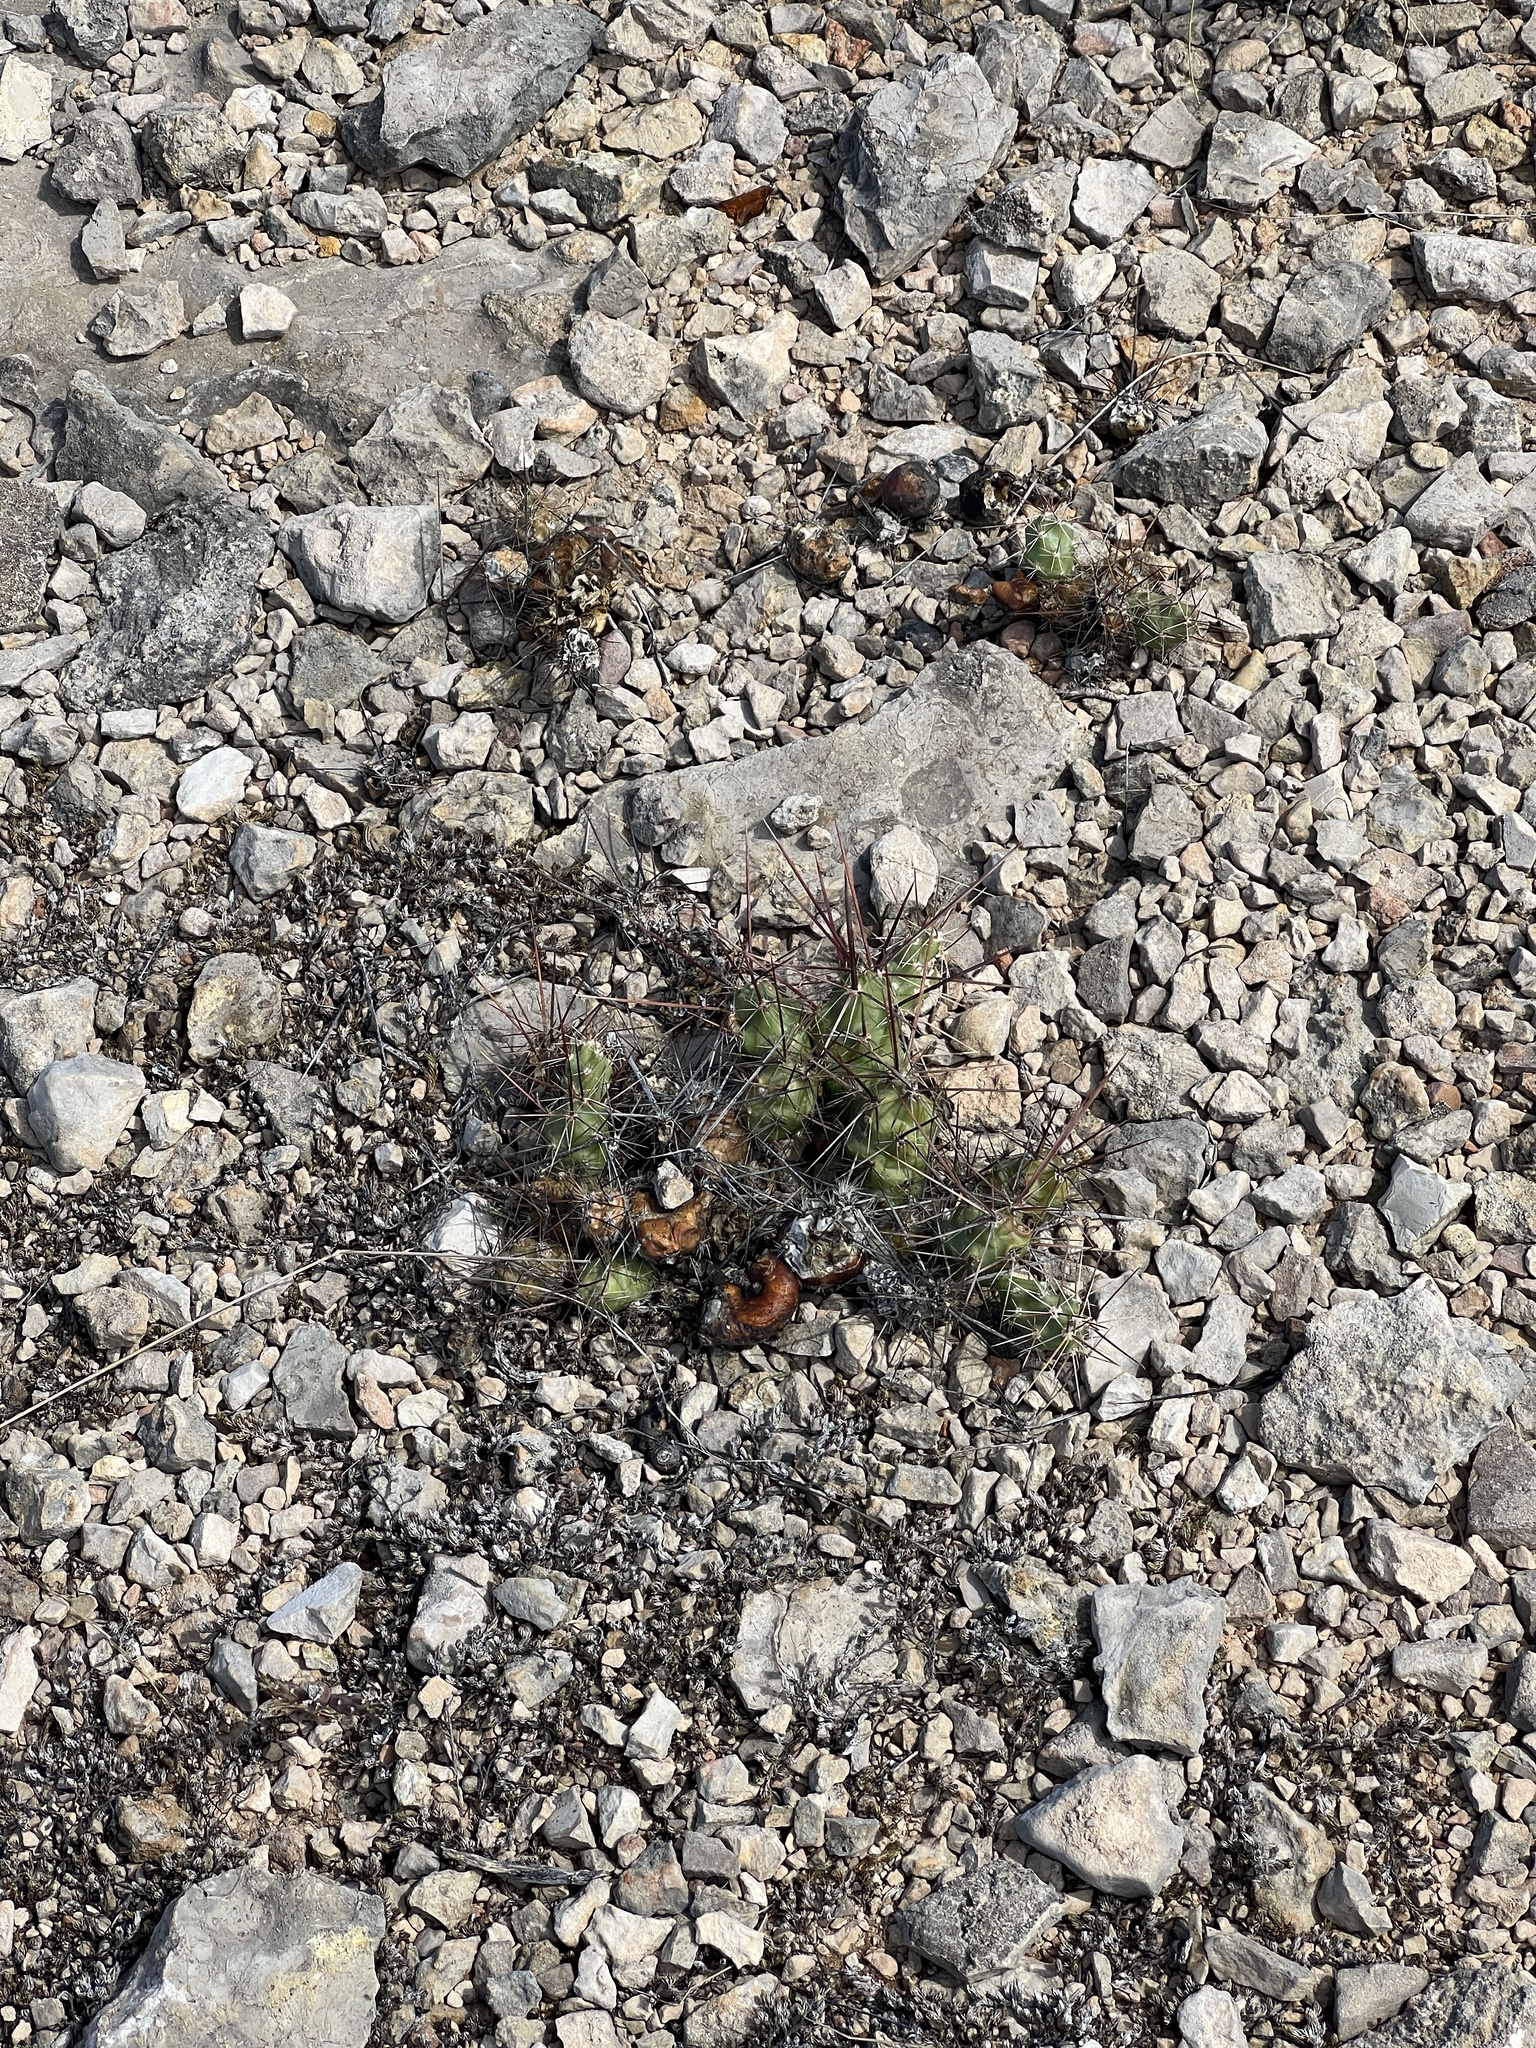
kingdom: Plantae
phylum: Tracheophyta
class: Magnoliopsida
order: Caryophyllales
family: Cactaceae
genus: Grusonia
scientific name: Grusonia schottii
